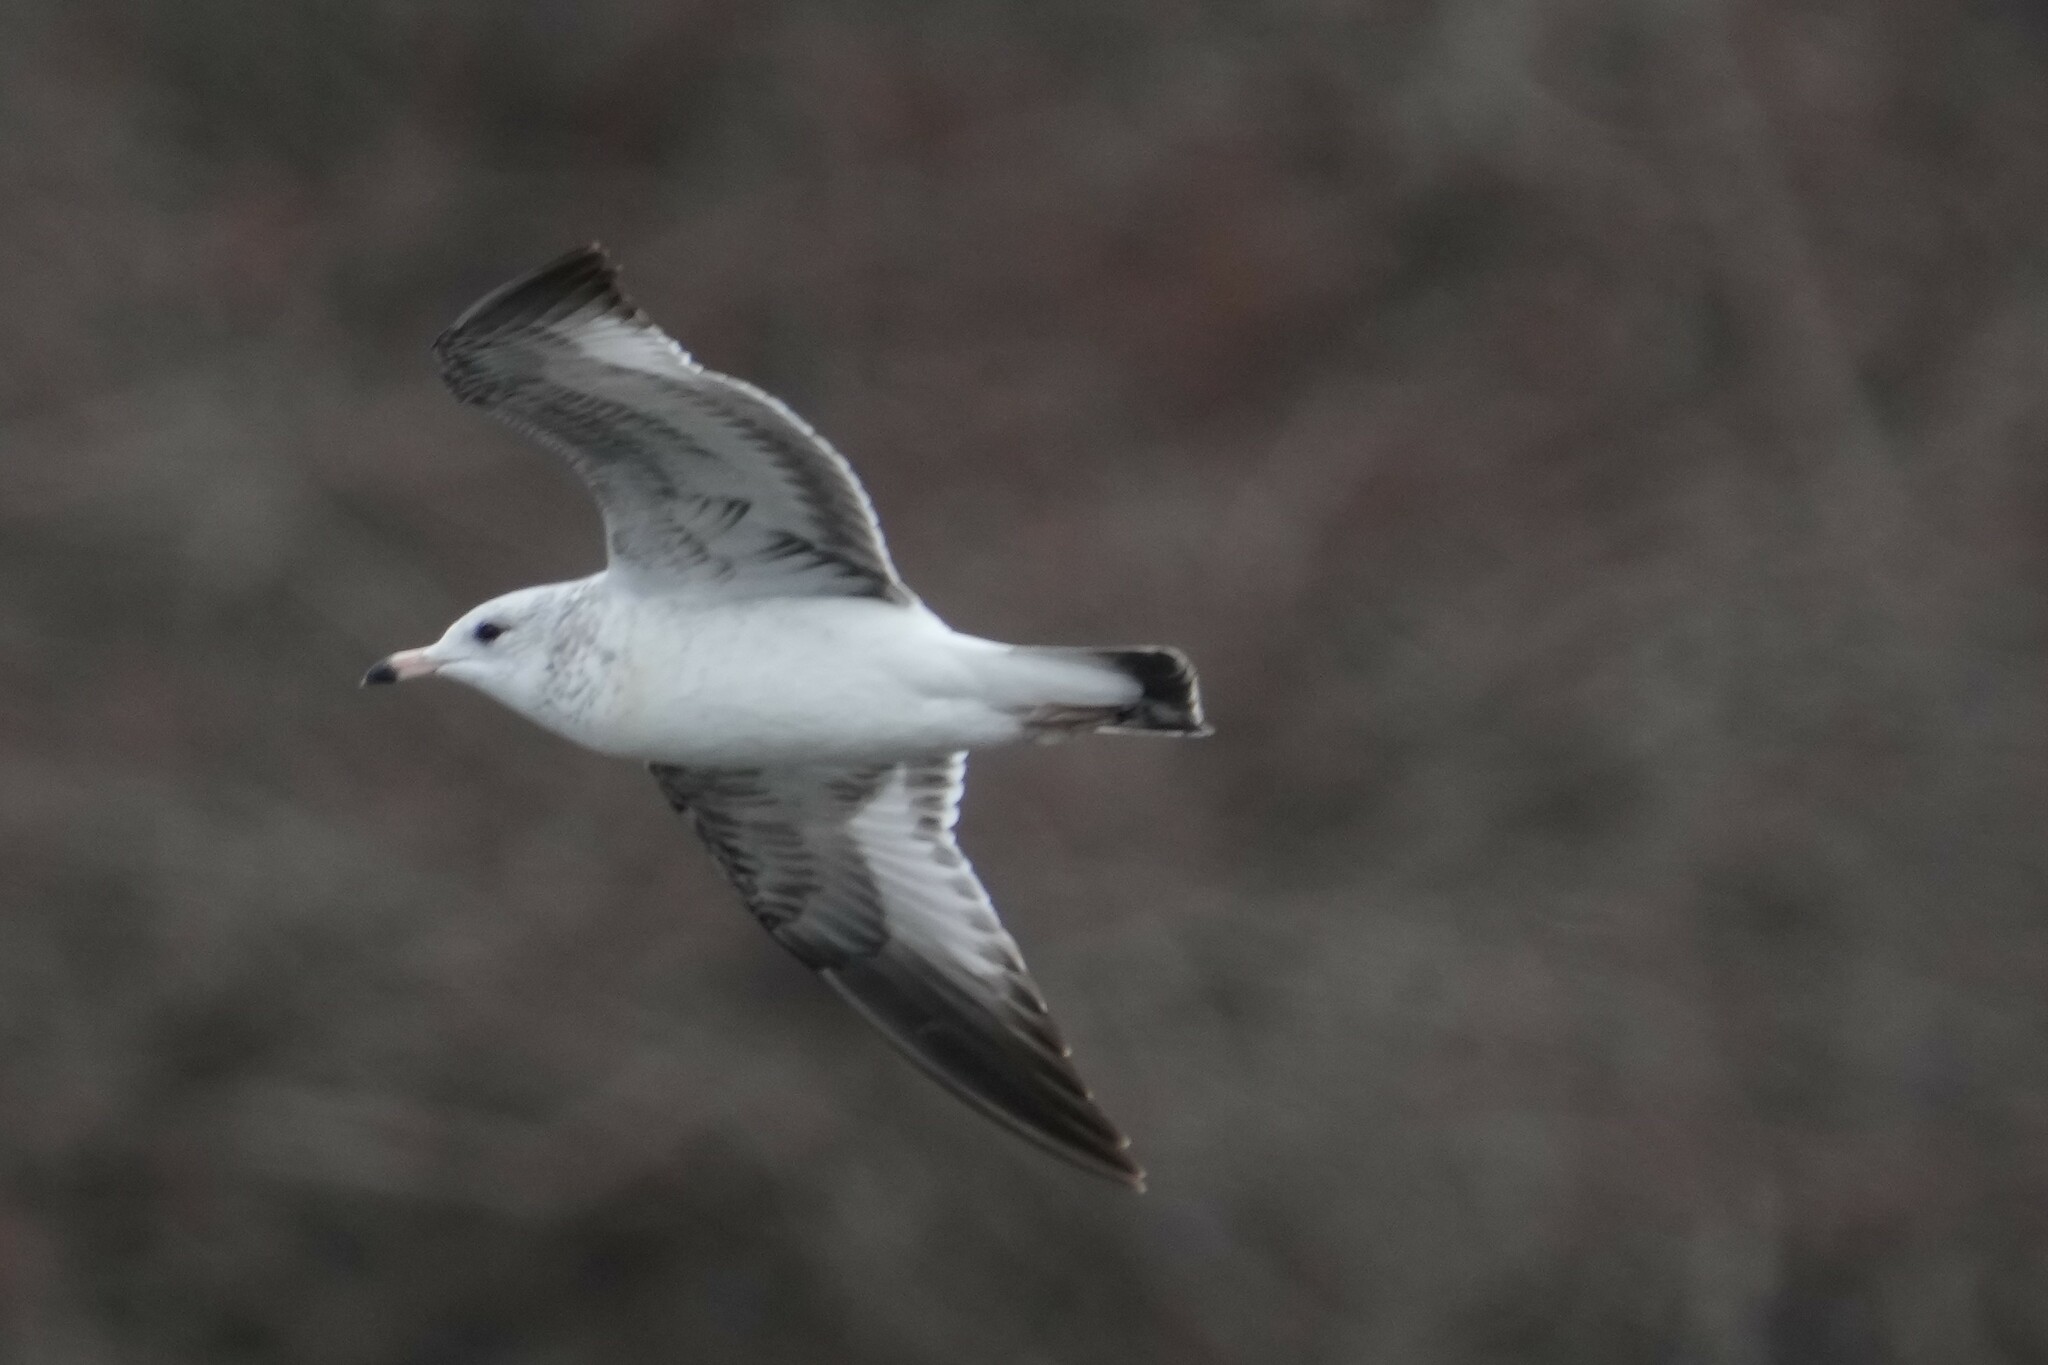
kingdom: Animalia
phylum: Chordata
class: Aves
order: Charadriiformes
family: Laridae
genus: Larus
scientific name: Larus delawarensis
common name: Ring-billed gull
